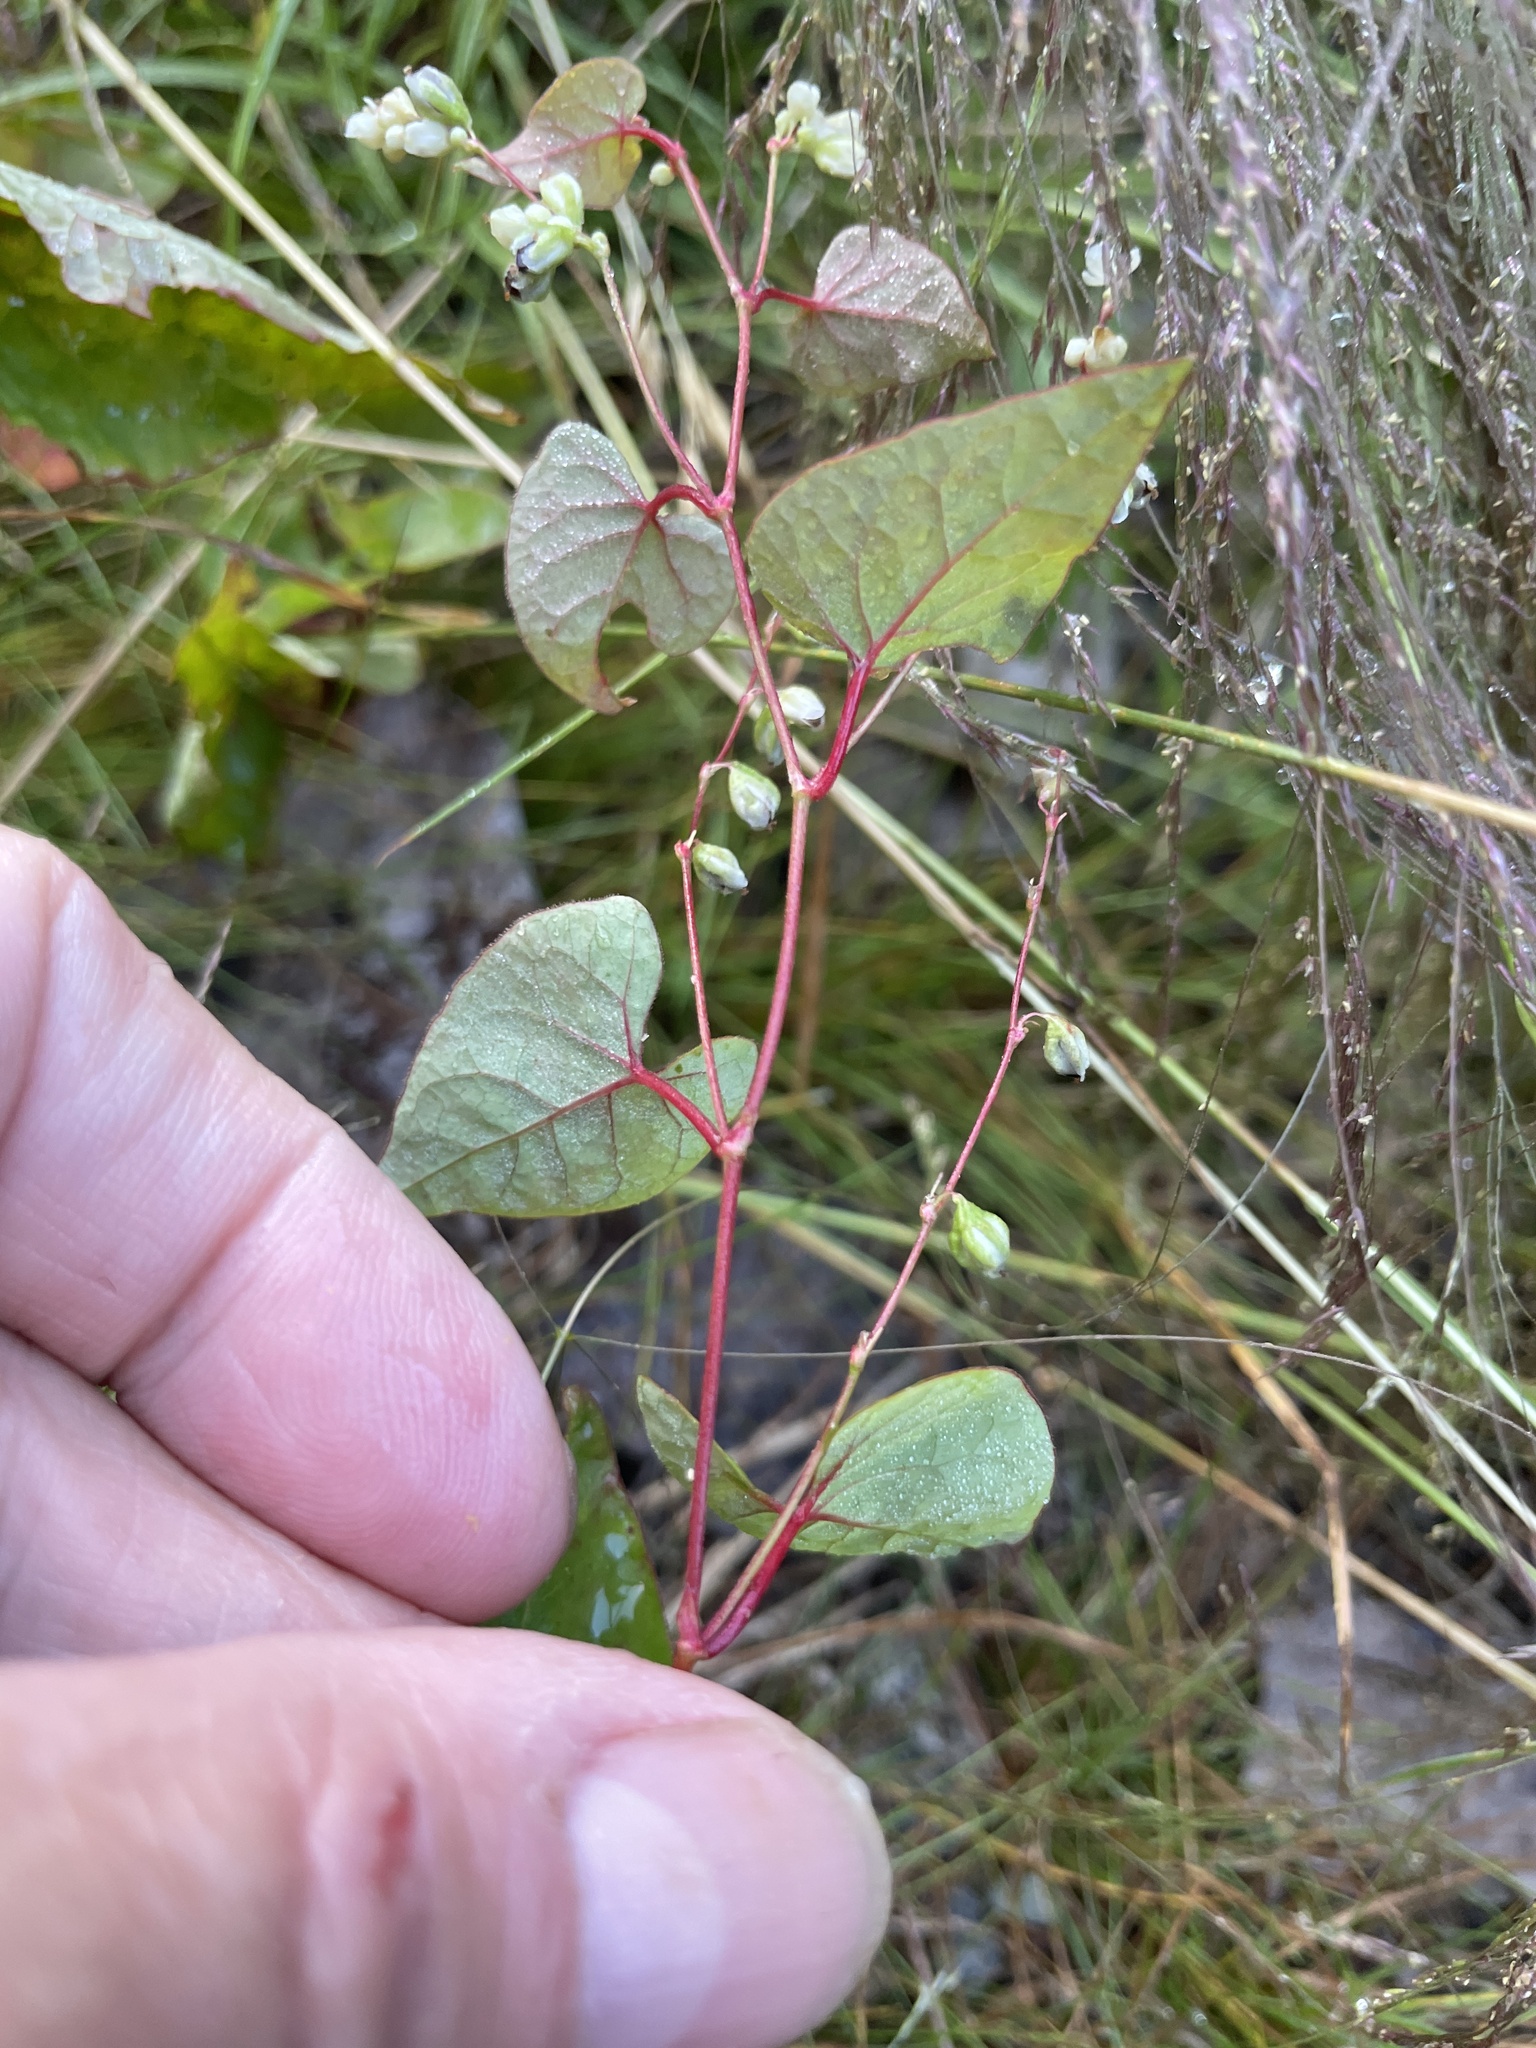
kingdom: Plantae
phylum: Tracheophyta
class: Magnoliopsida
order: Caryophyllales
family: Polygonaceae
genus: Parogonum
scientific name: Parogonum ciliinode
